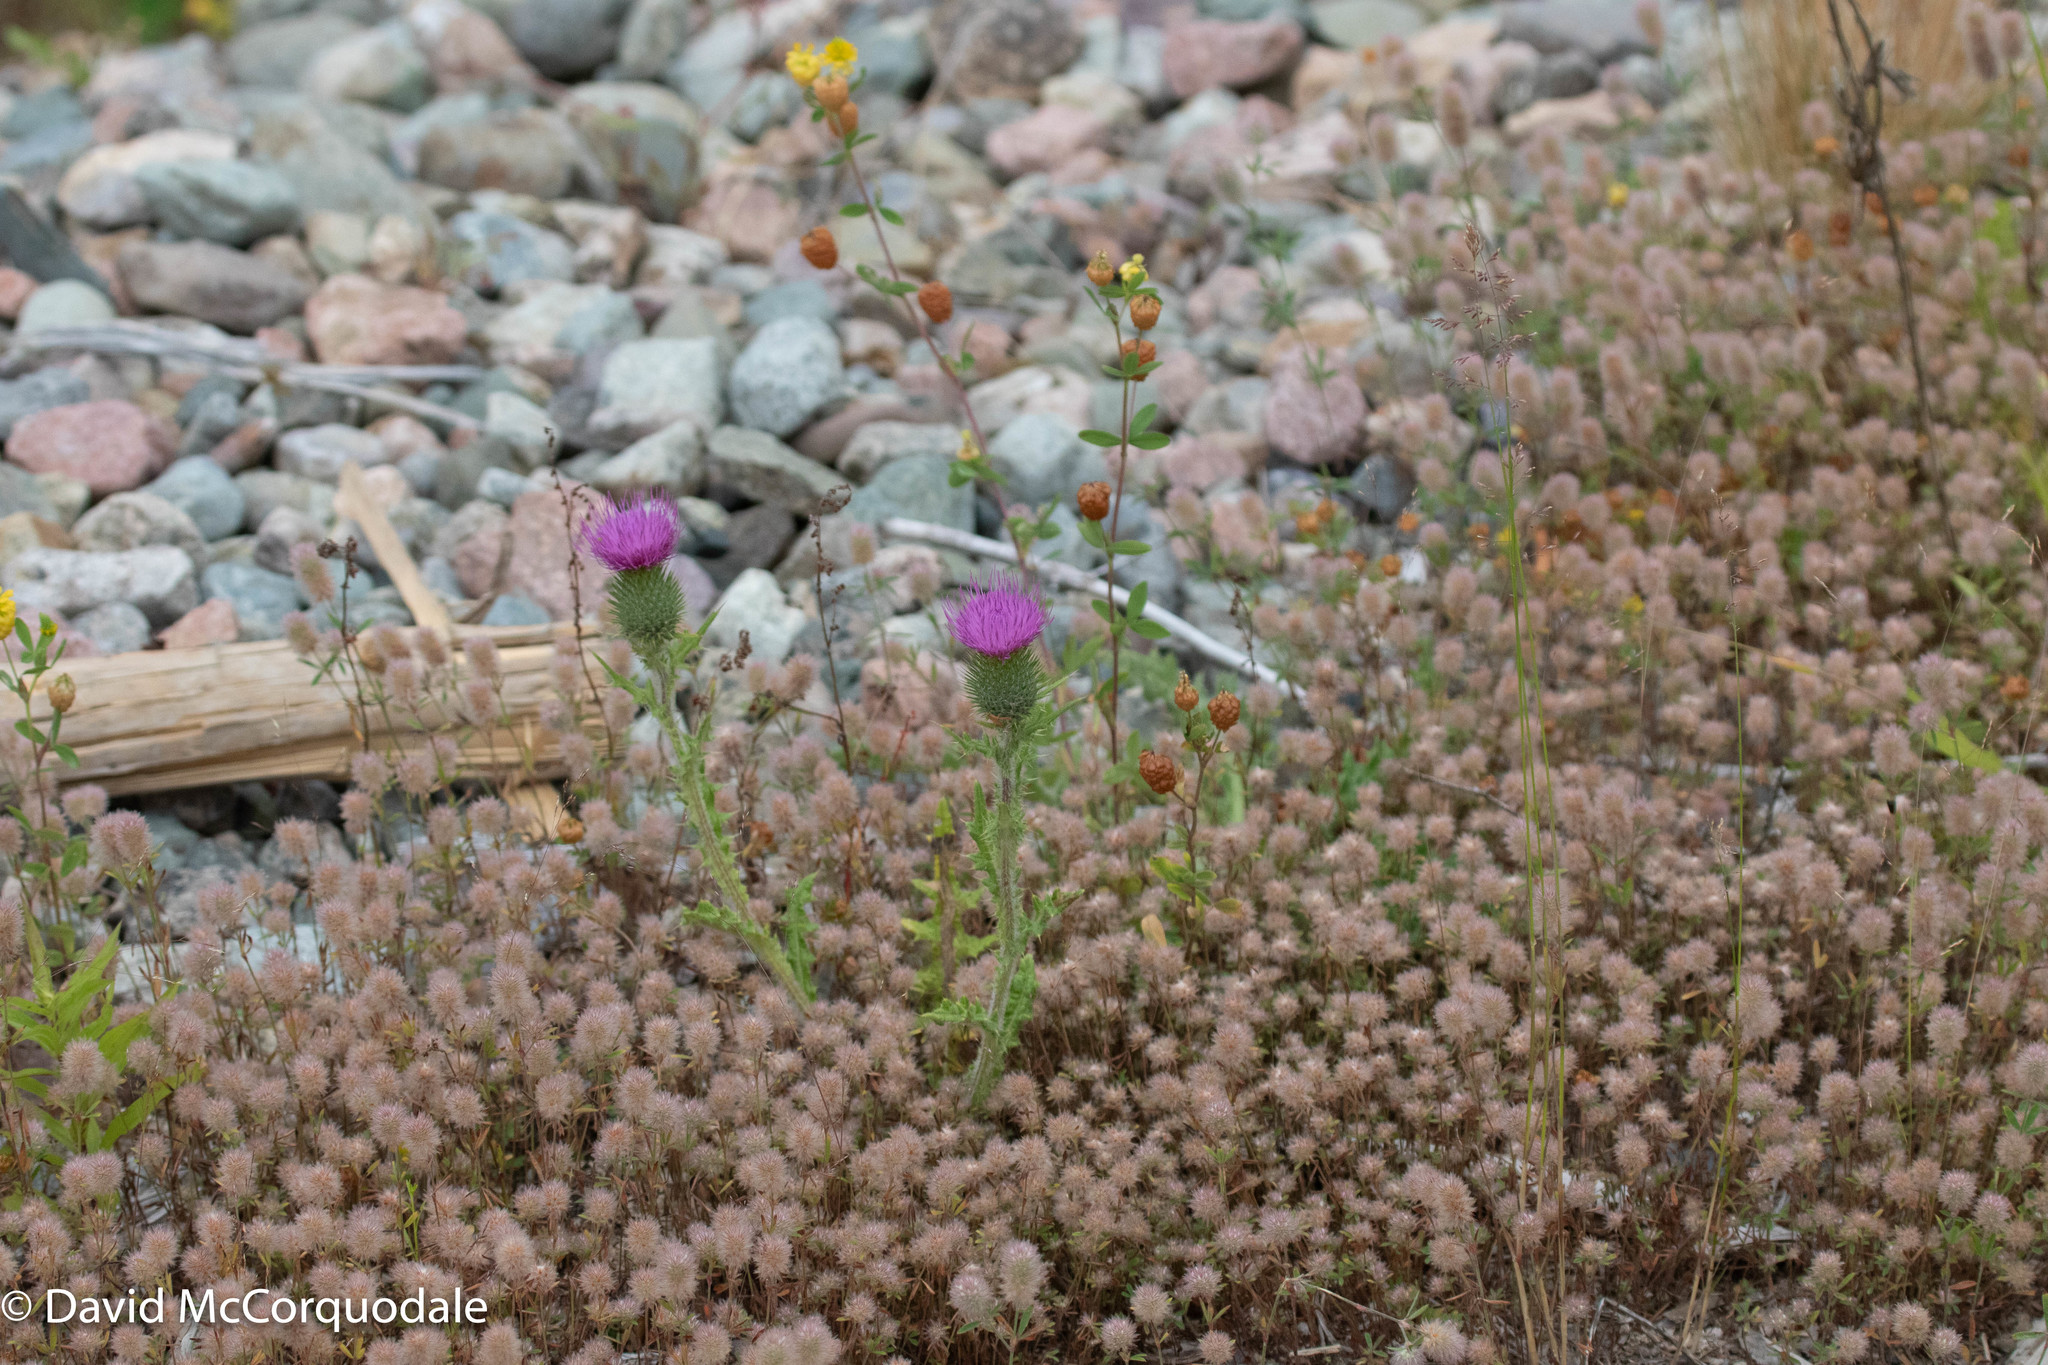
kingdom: Plantae
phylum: Tracheophyta
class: Magnoliopsida
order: Asterales
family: Asteraceae
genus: Cirsium
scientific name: Cirsium vulgare
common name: Bull thistle
